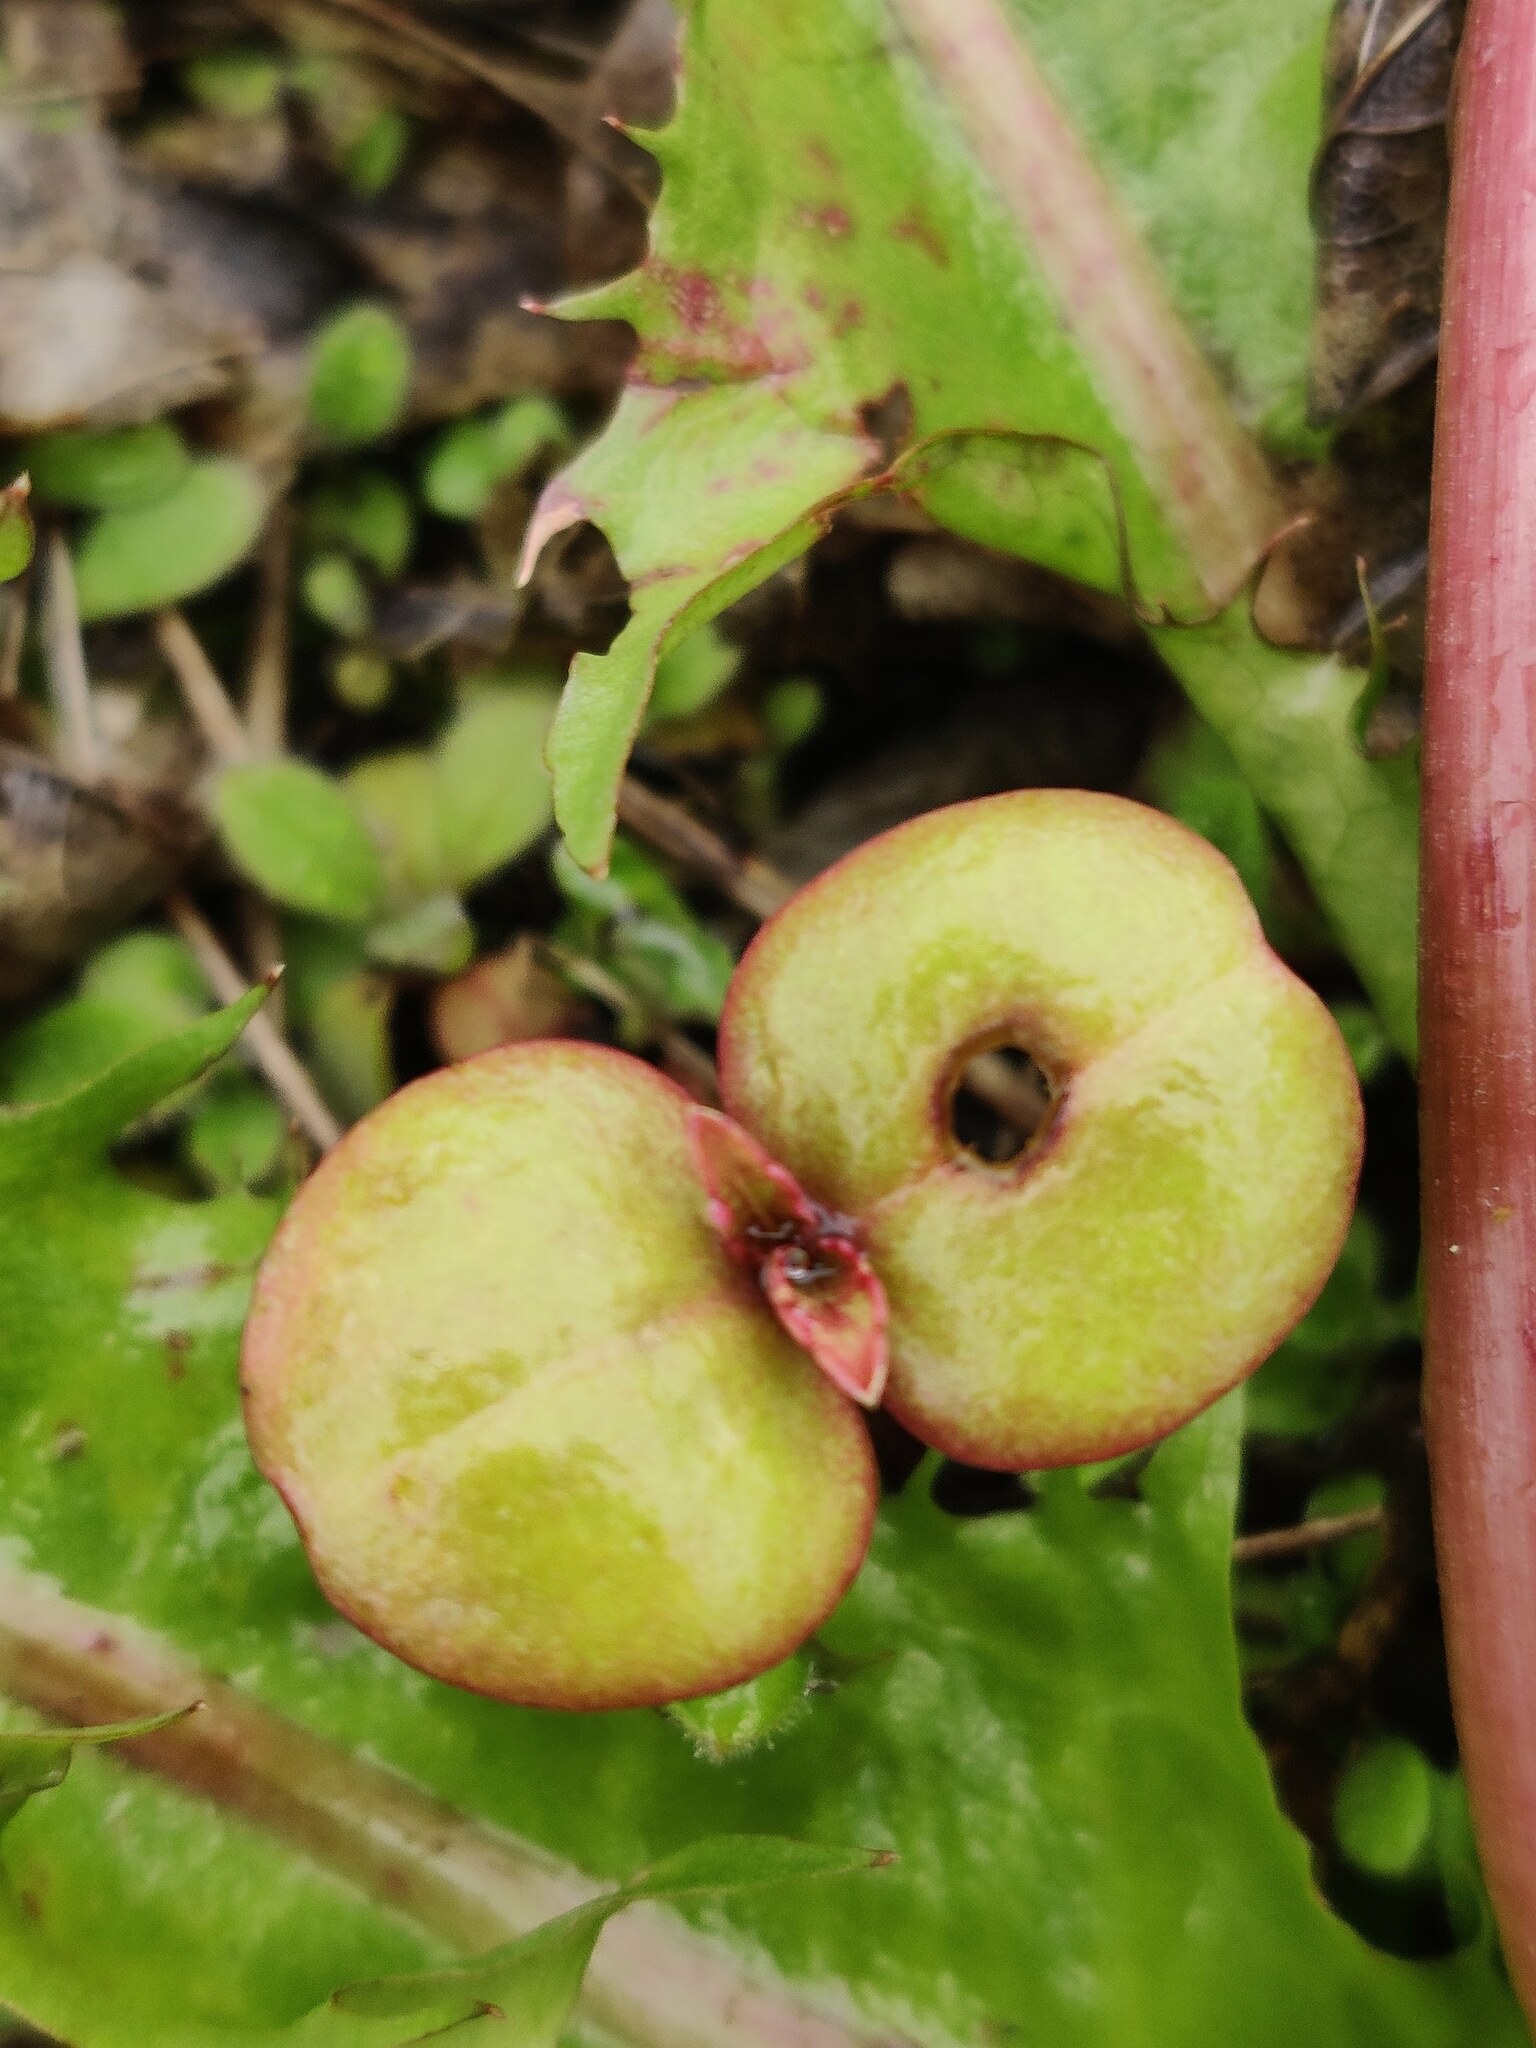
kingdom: Plantae
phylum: Tracheophyta
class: Magnoliopsida
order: Ericales
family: Balsaminaceae
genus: Impatiens
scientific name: Impatiens glandulifera
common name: Himalayan balsam
